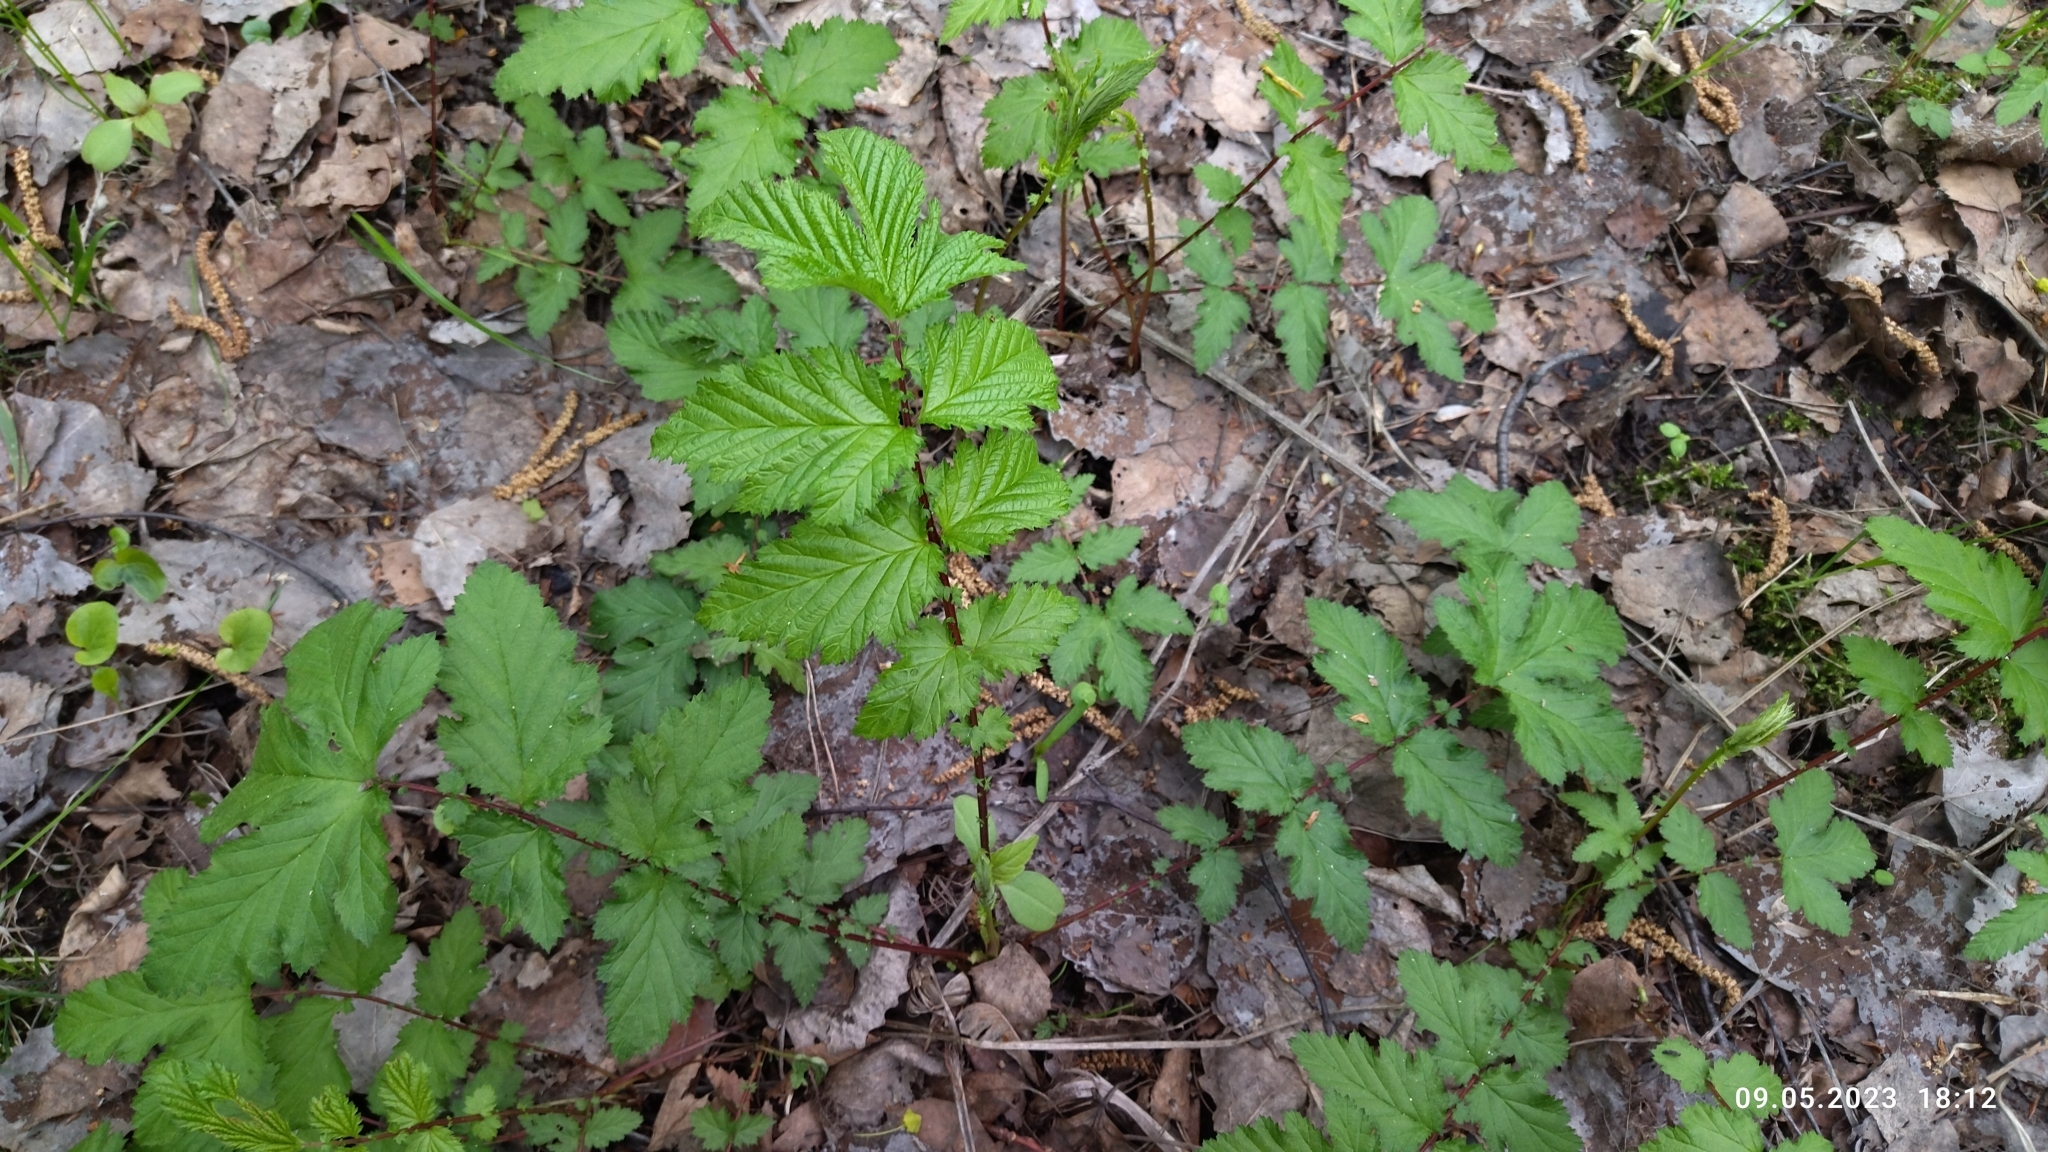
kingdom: Plantae
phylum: Tracheophyta
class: Magnoliopsida
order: Rosales
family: Rosaceae
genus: Filipendula
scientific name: Filipendula ulmaria
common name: Meadowsweet
